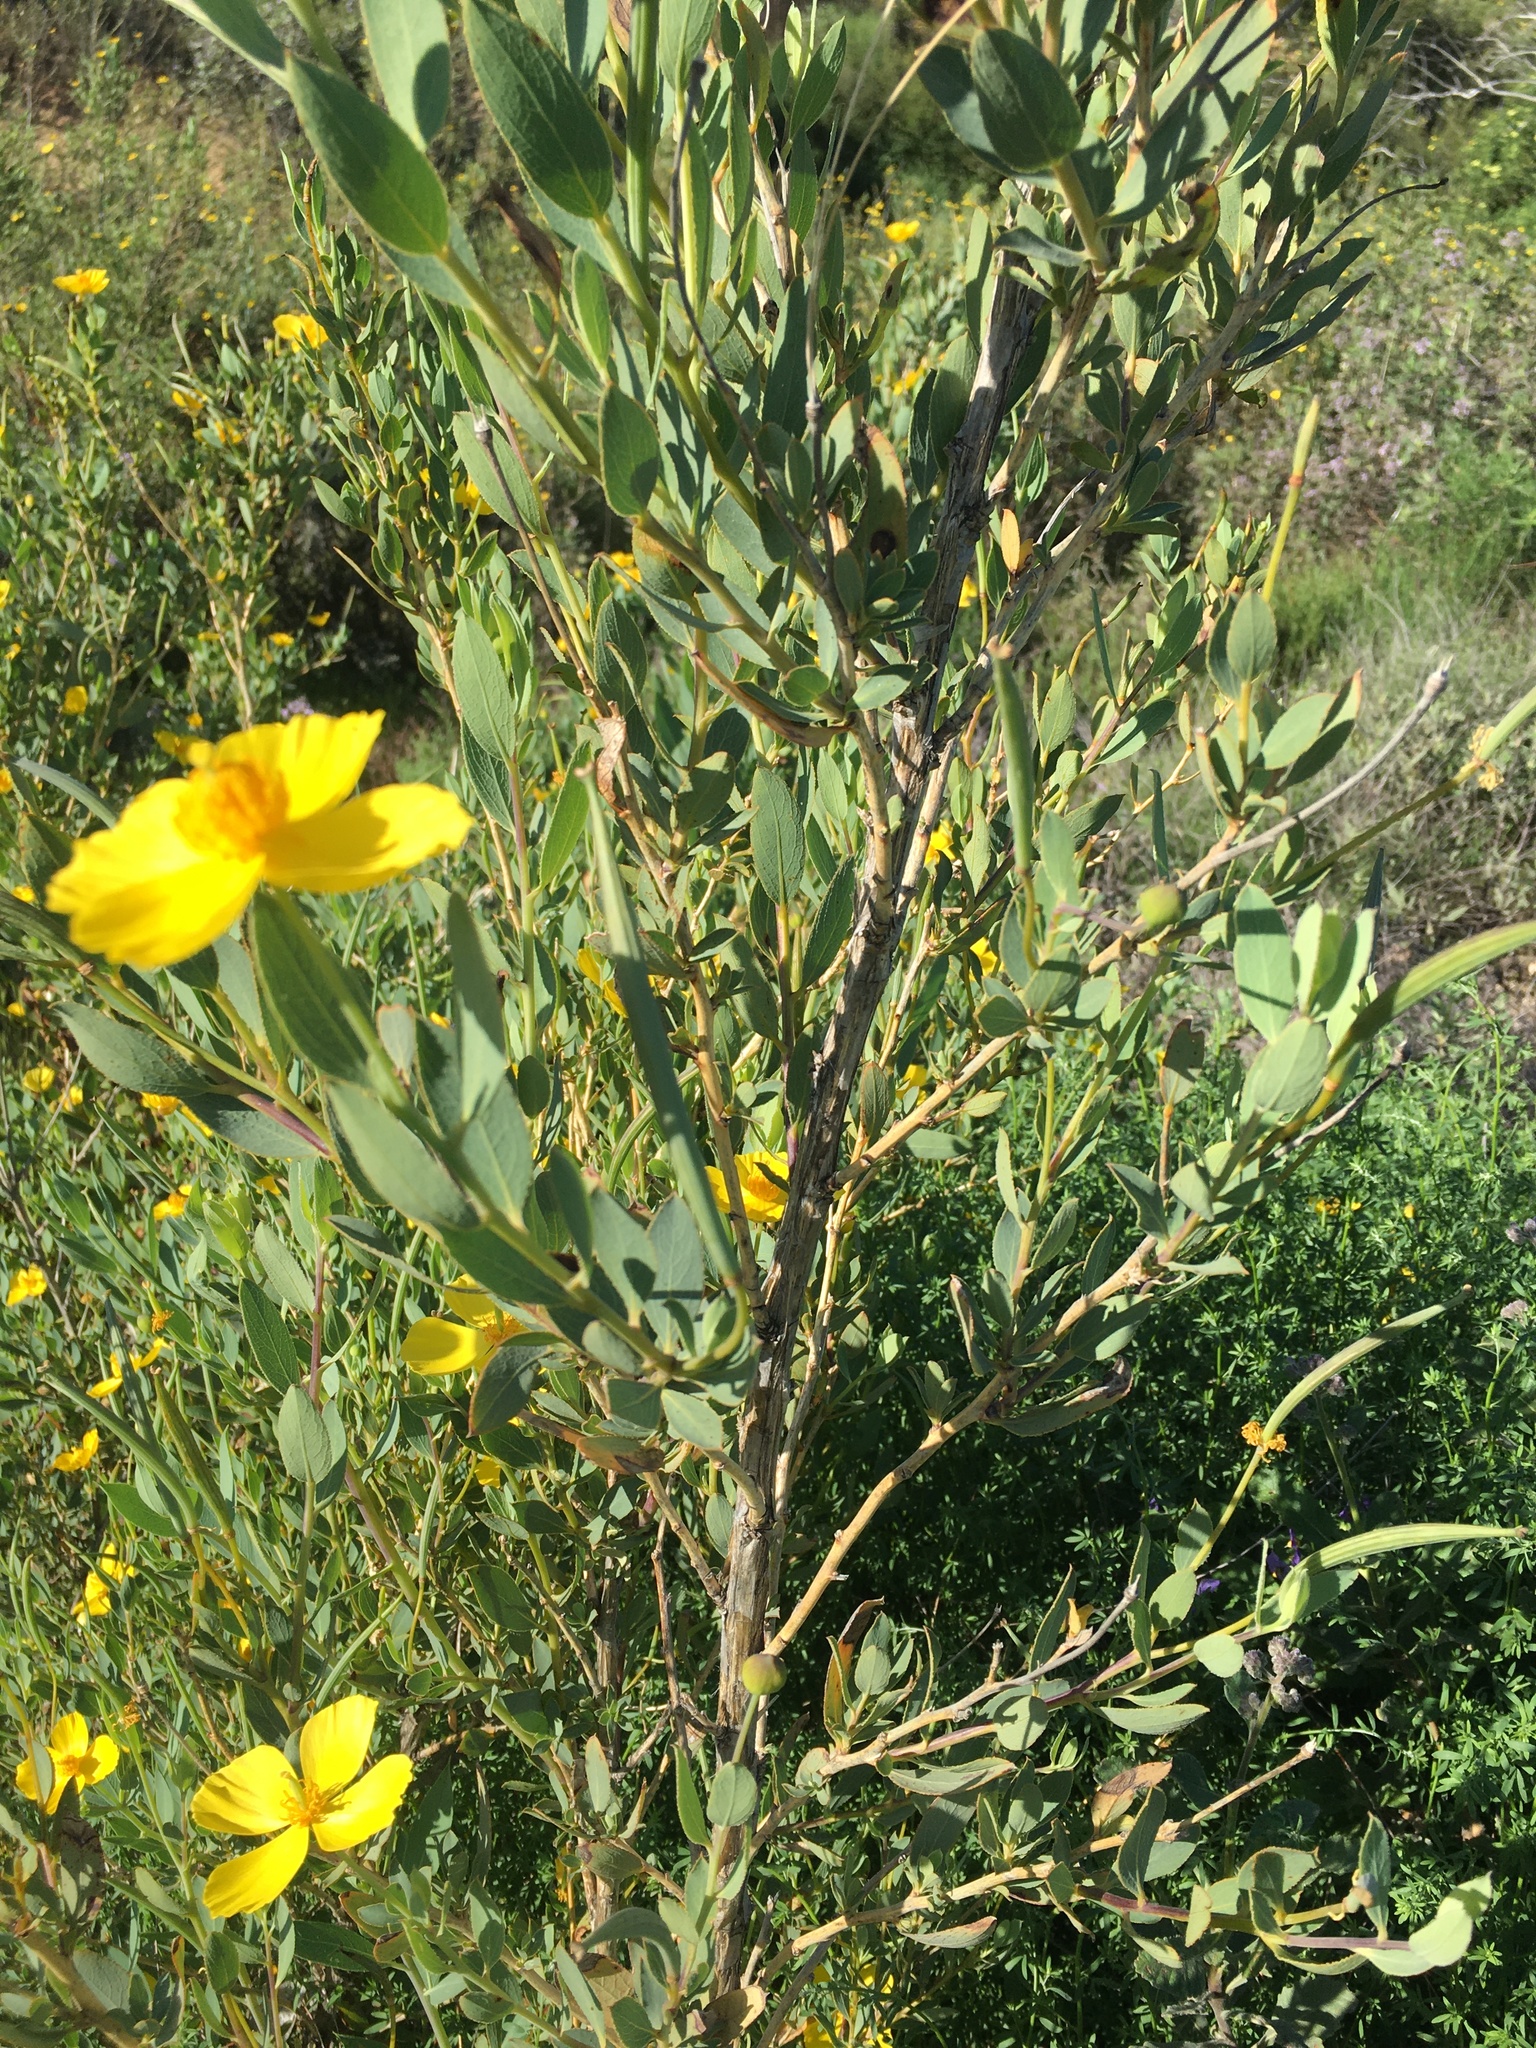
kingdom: Plantae
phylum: Tracheophyta
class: Magnoliopsida
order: Ranunculales
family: Papaveraceae
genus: Dendromecon
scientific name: Dendromecon rigida
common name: Tree poppy
